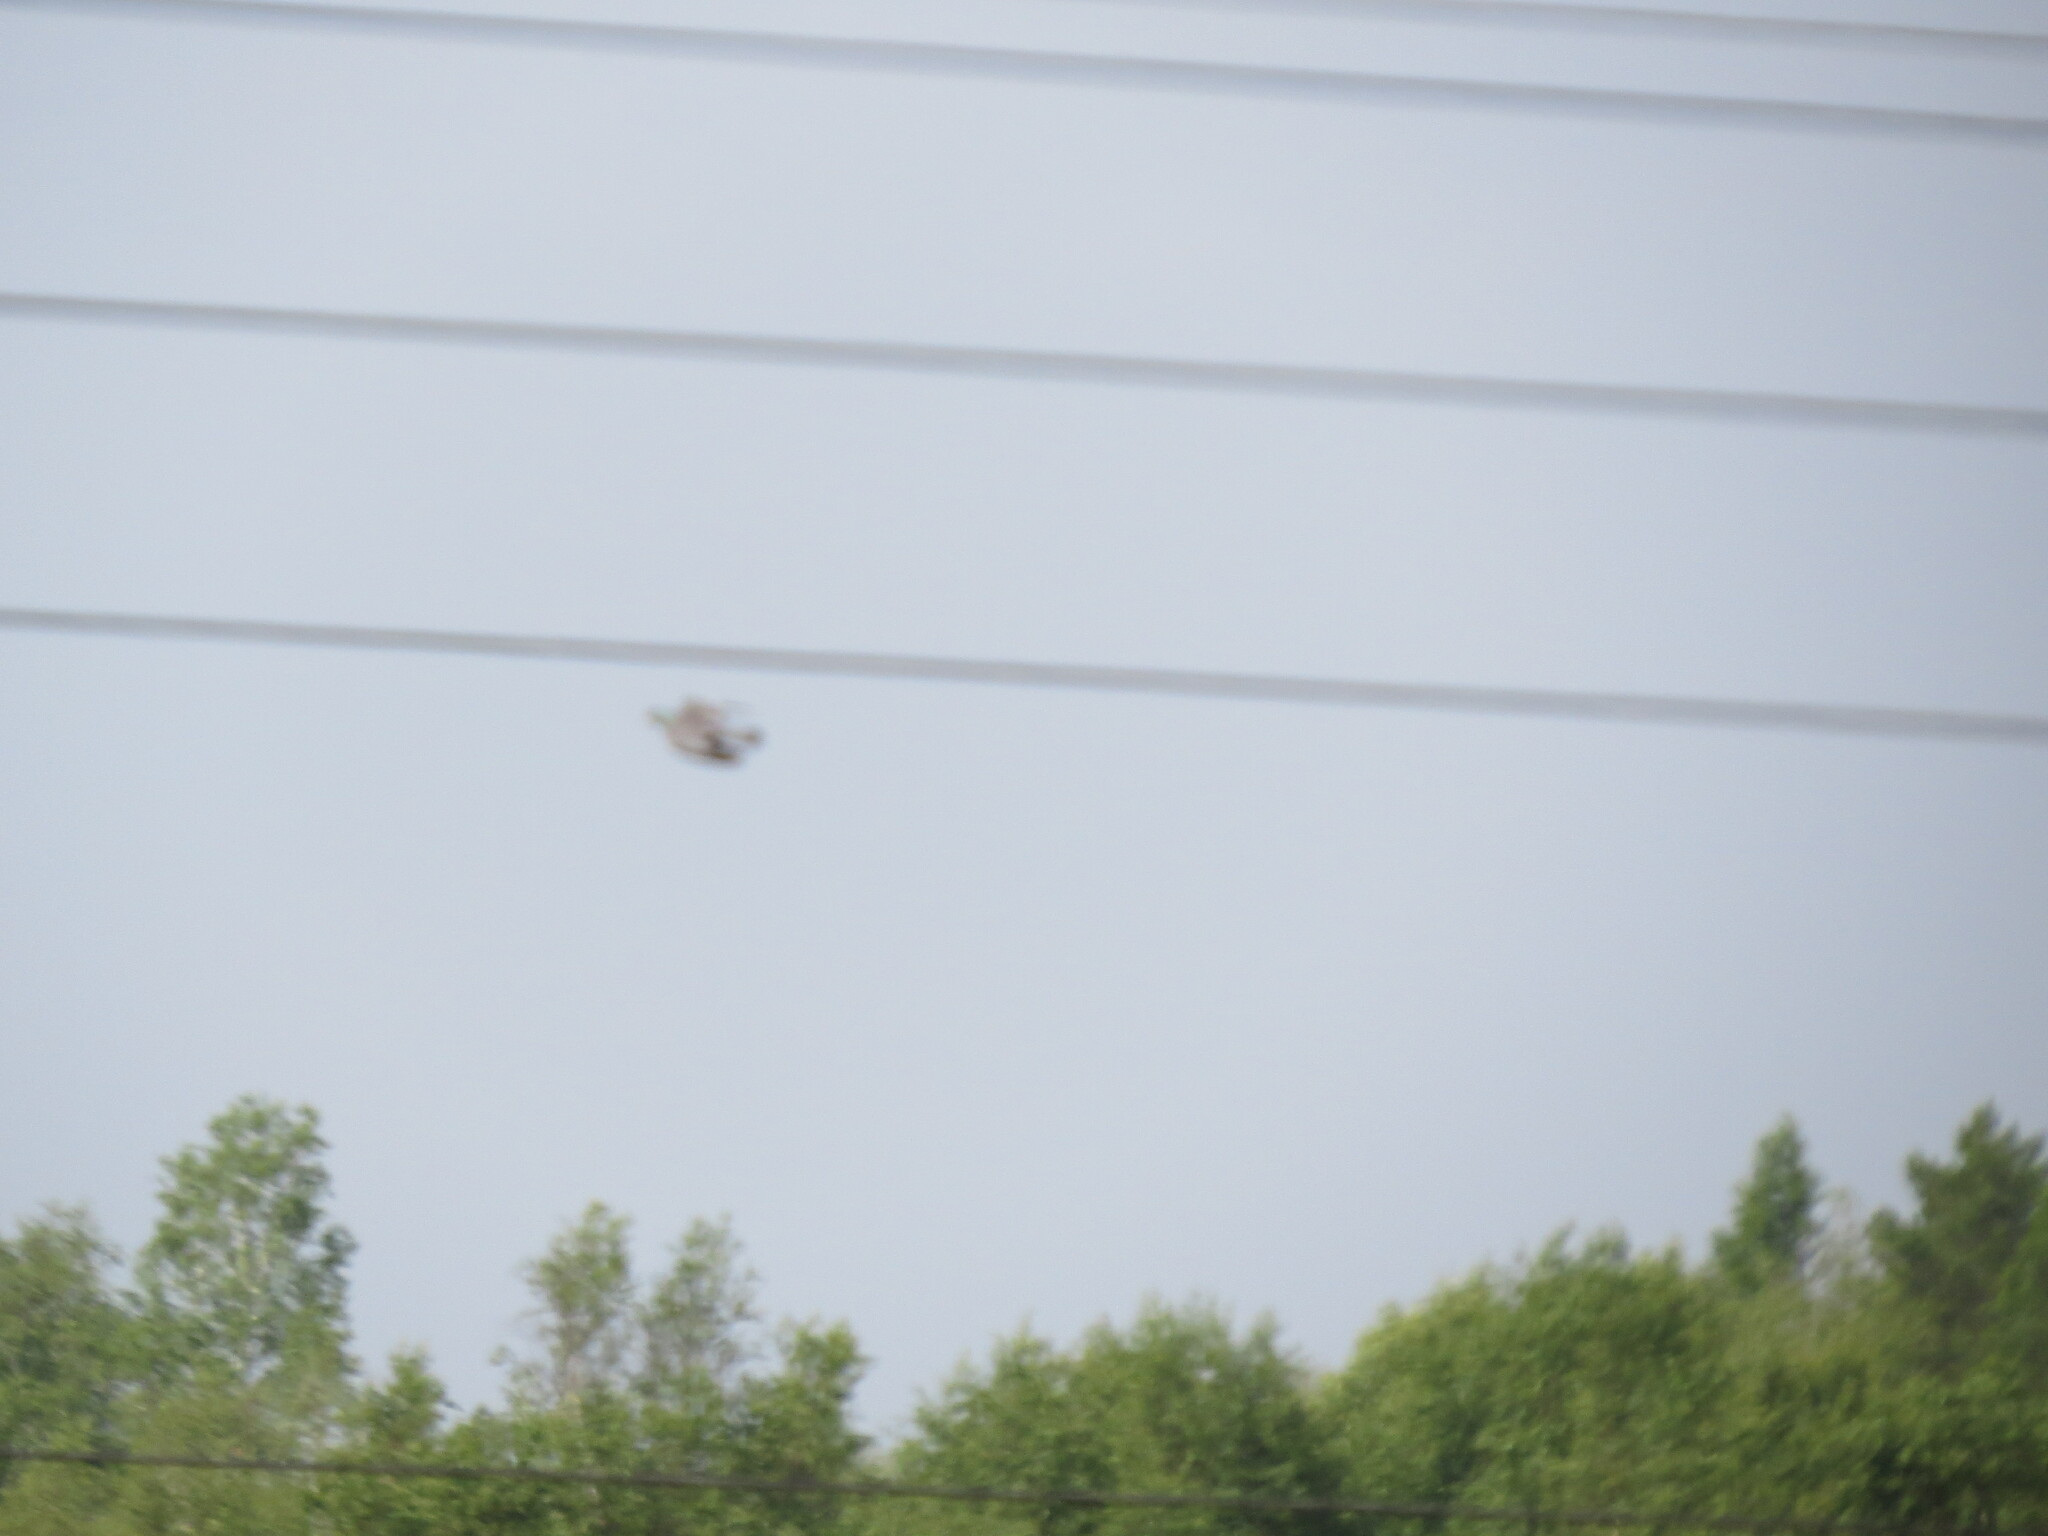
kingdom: Animalia
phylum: Chordata
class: Aves
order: Columbiformes
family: Columbidae
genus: Columba
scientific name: Columba oenas
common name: Stock dove
